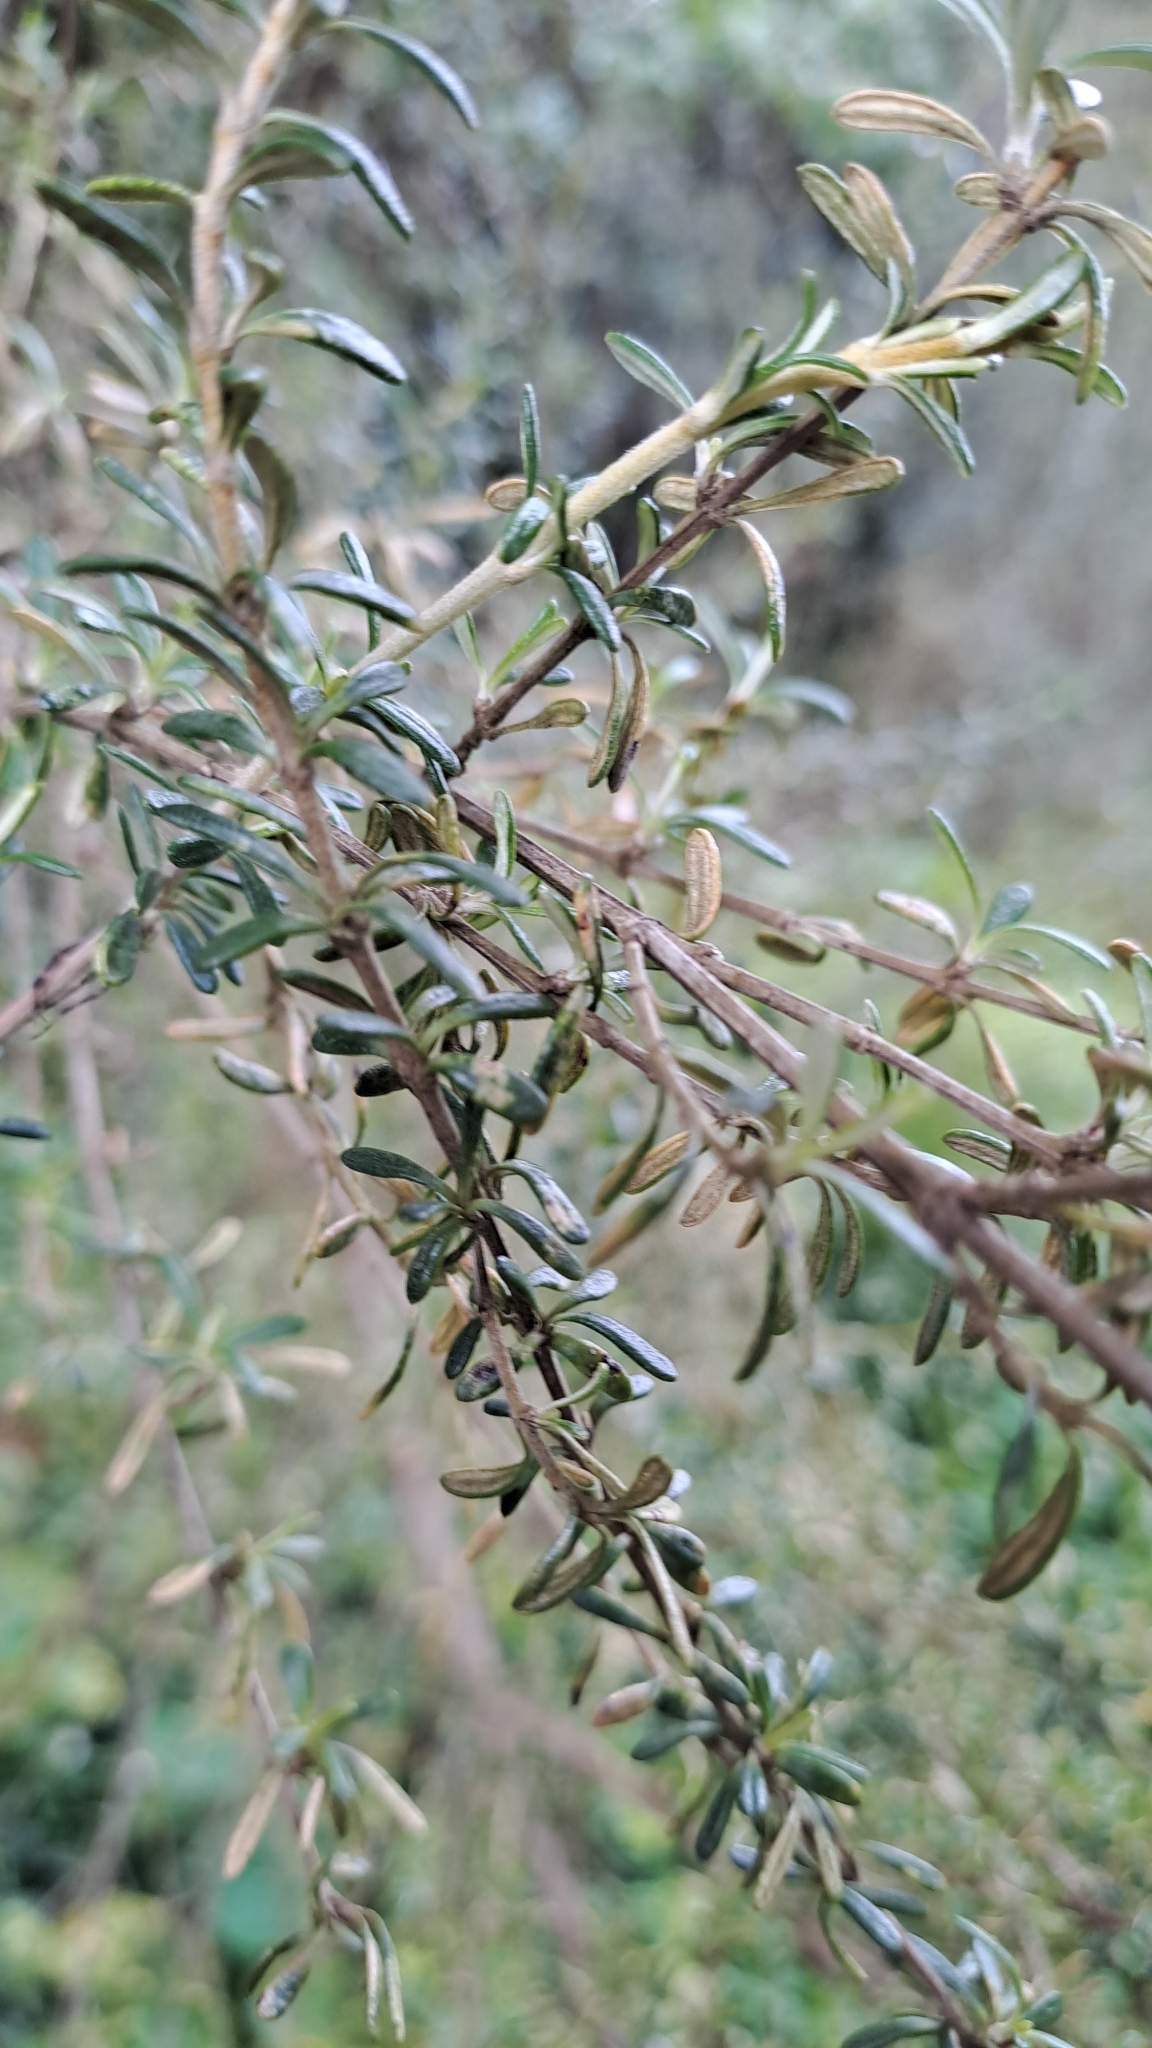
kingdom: Plantae
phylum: Tracheophyta
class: Magnoliopsida
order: Asterales
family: Asteraceae
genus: Olearia
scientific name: Olearia solandri
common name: Coastal daisybush
